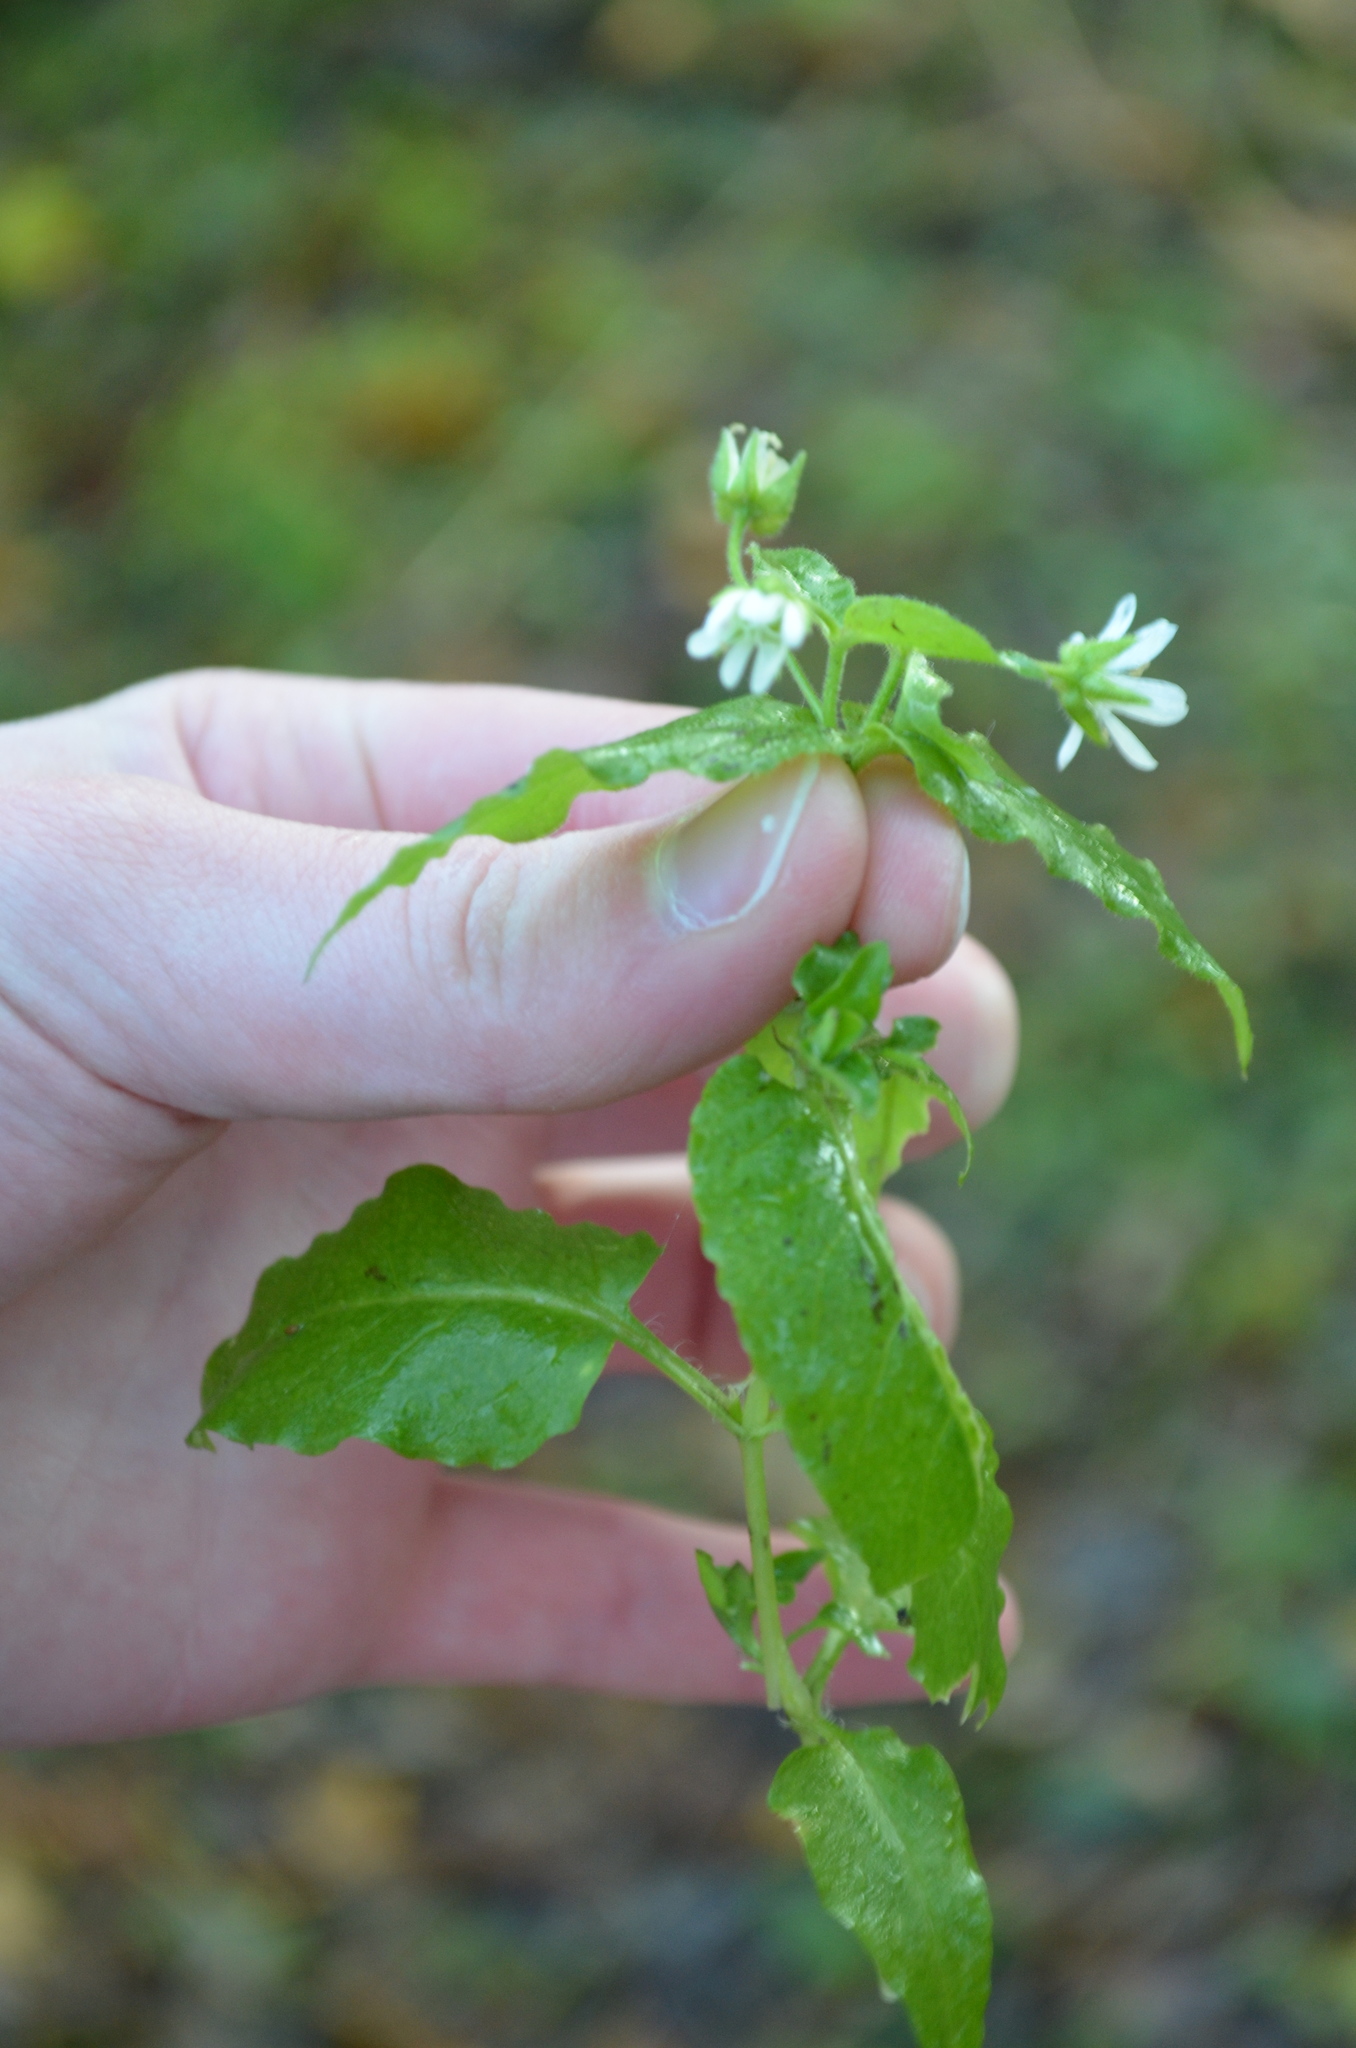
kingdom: Plantae
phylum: Tracheophyta
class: Magnoliopsida
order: Caryophyllales
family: Caryophyllaceae
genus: Stellaria
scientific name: Stellaria aquatica
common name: Water chickweed
